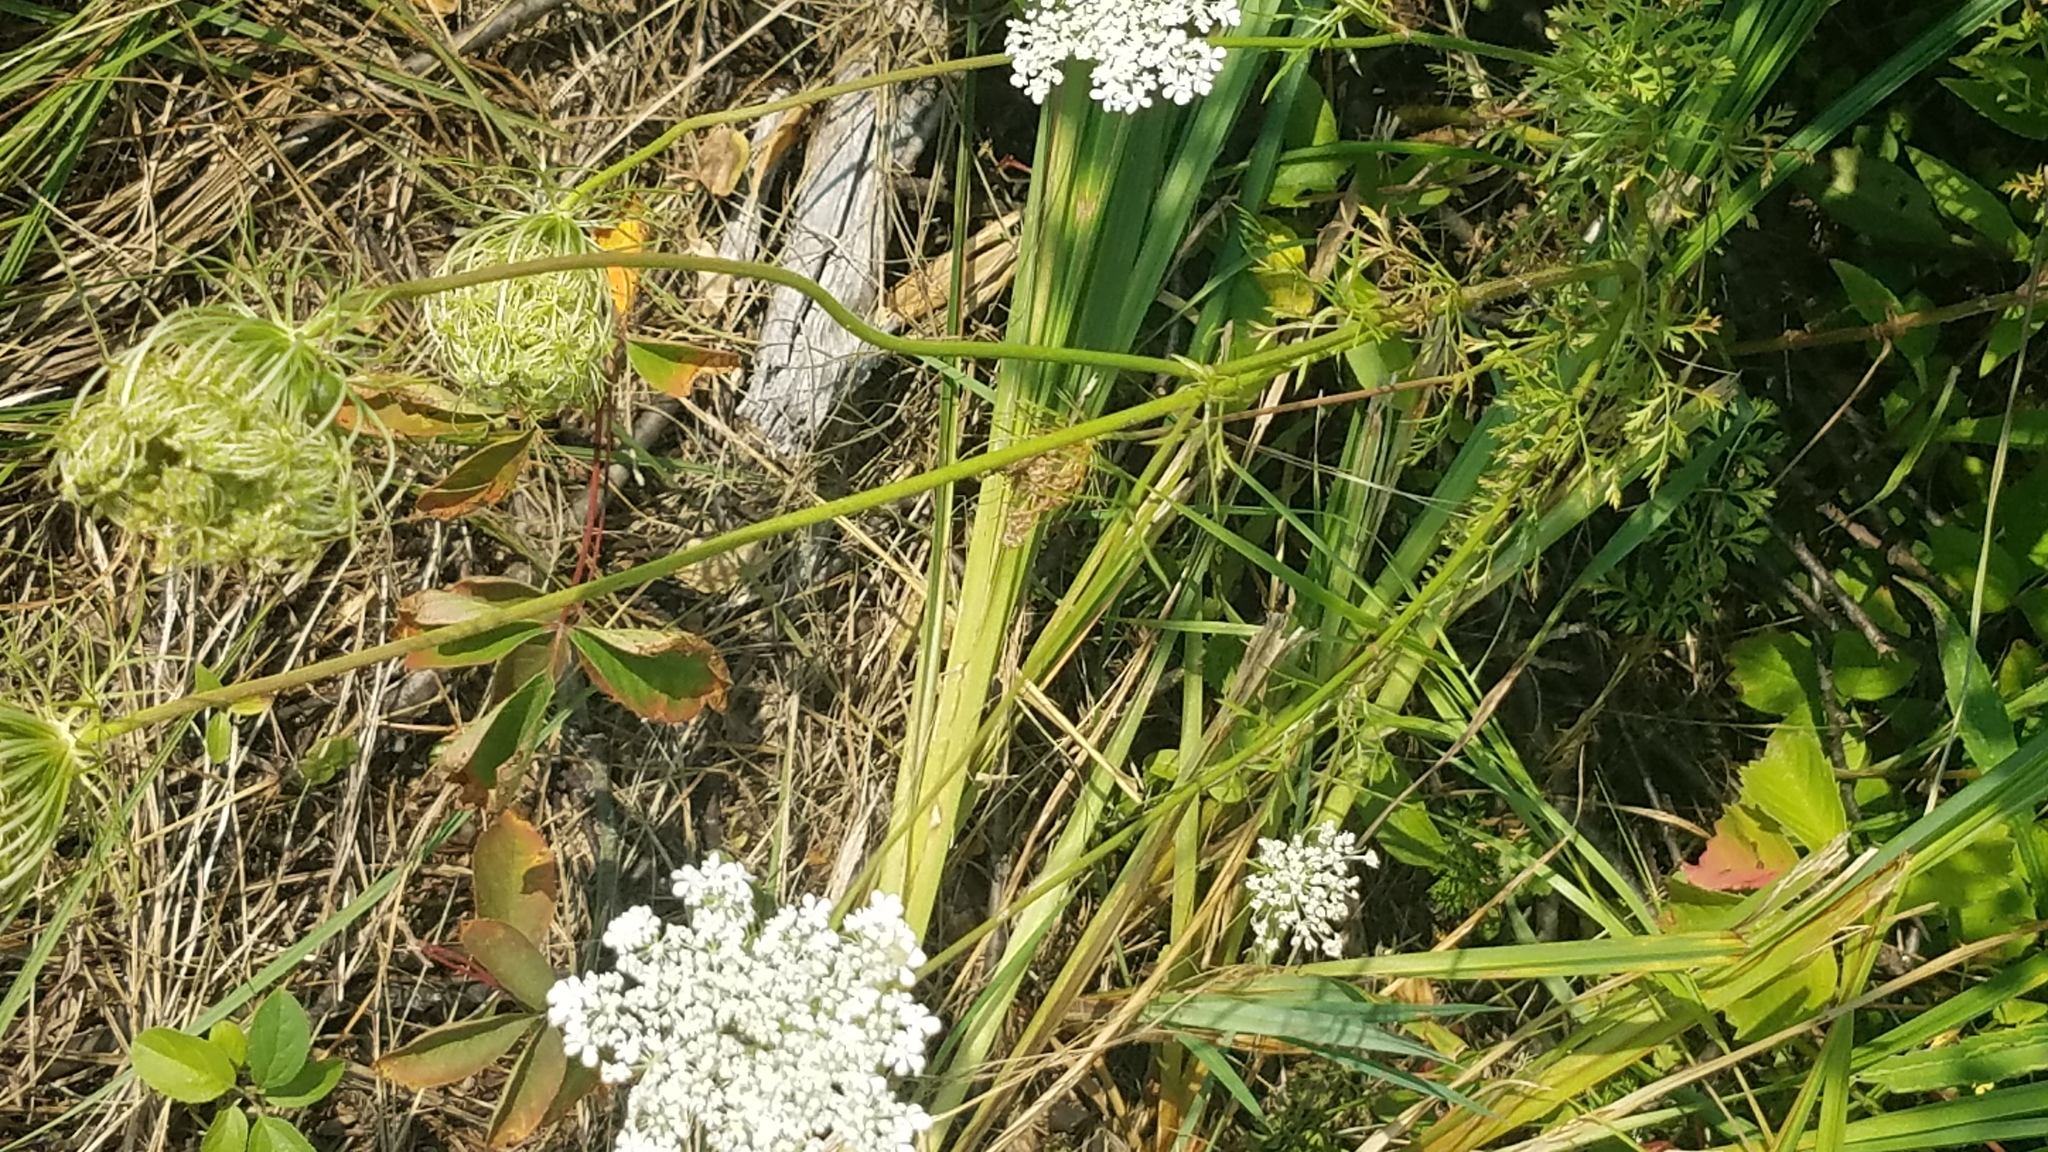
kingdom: Plantae
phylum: Tracheophyta
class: Magnoliopsida
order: Apiales
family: Apiaceae
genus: Daucus
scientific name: Daucus carota
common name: Wild carrot
